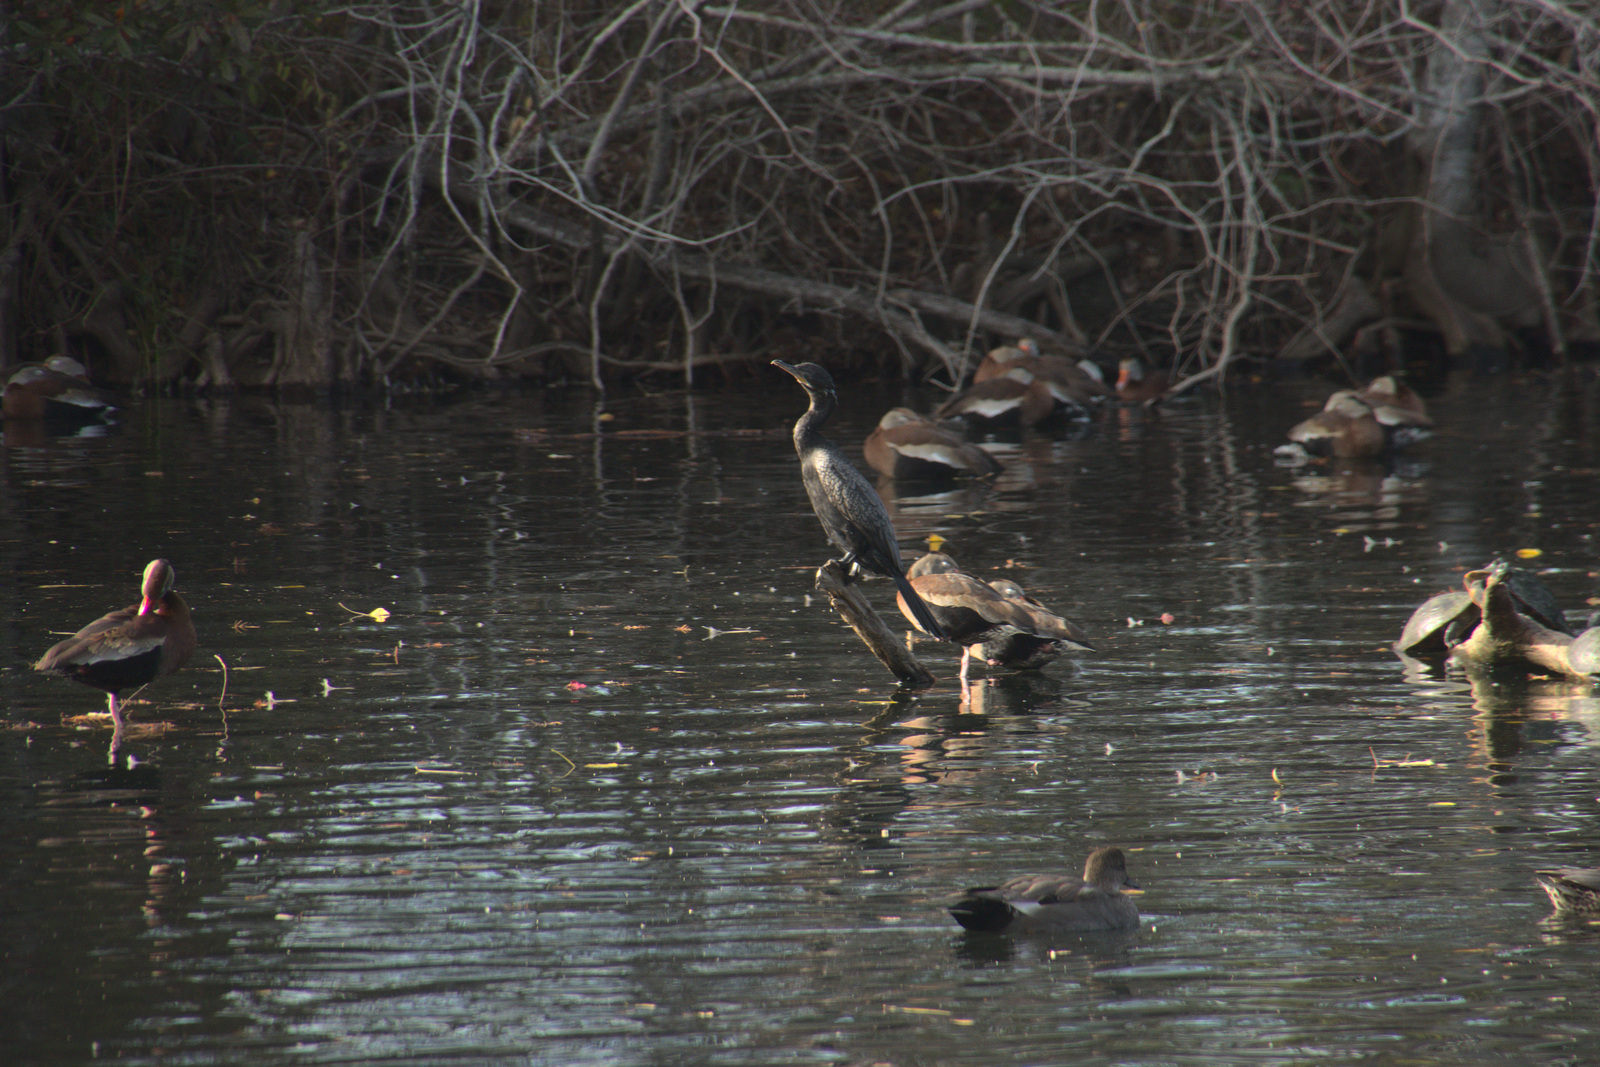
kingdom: Animalia
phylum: Chordata
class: Aves
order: Suliformes
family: Phalacrocoracidae
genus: Phalacrocorax
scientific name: Phalacrocorax brasilianus
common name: Neotropic cormorant
